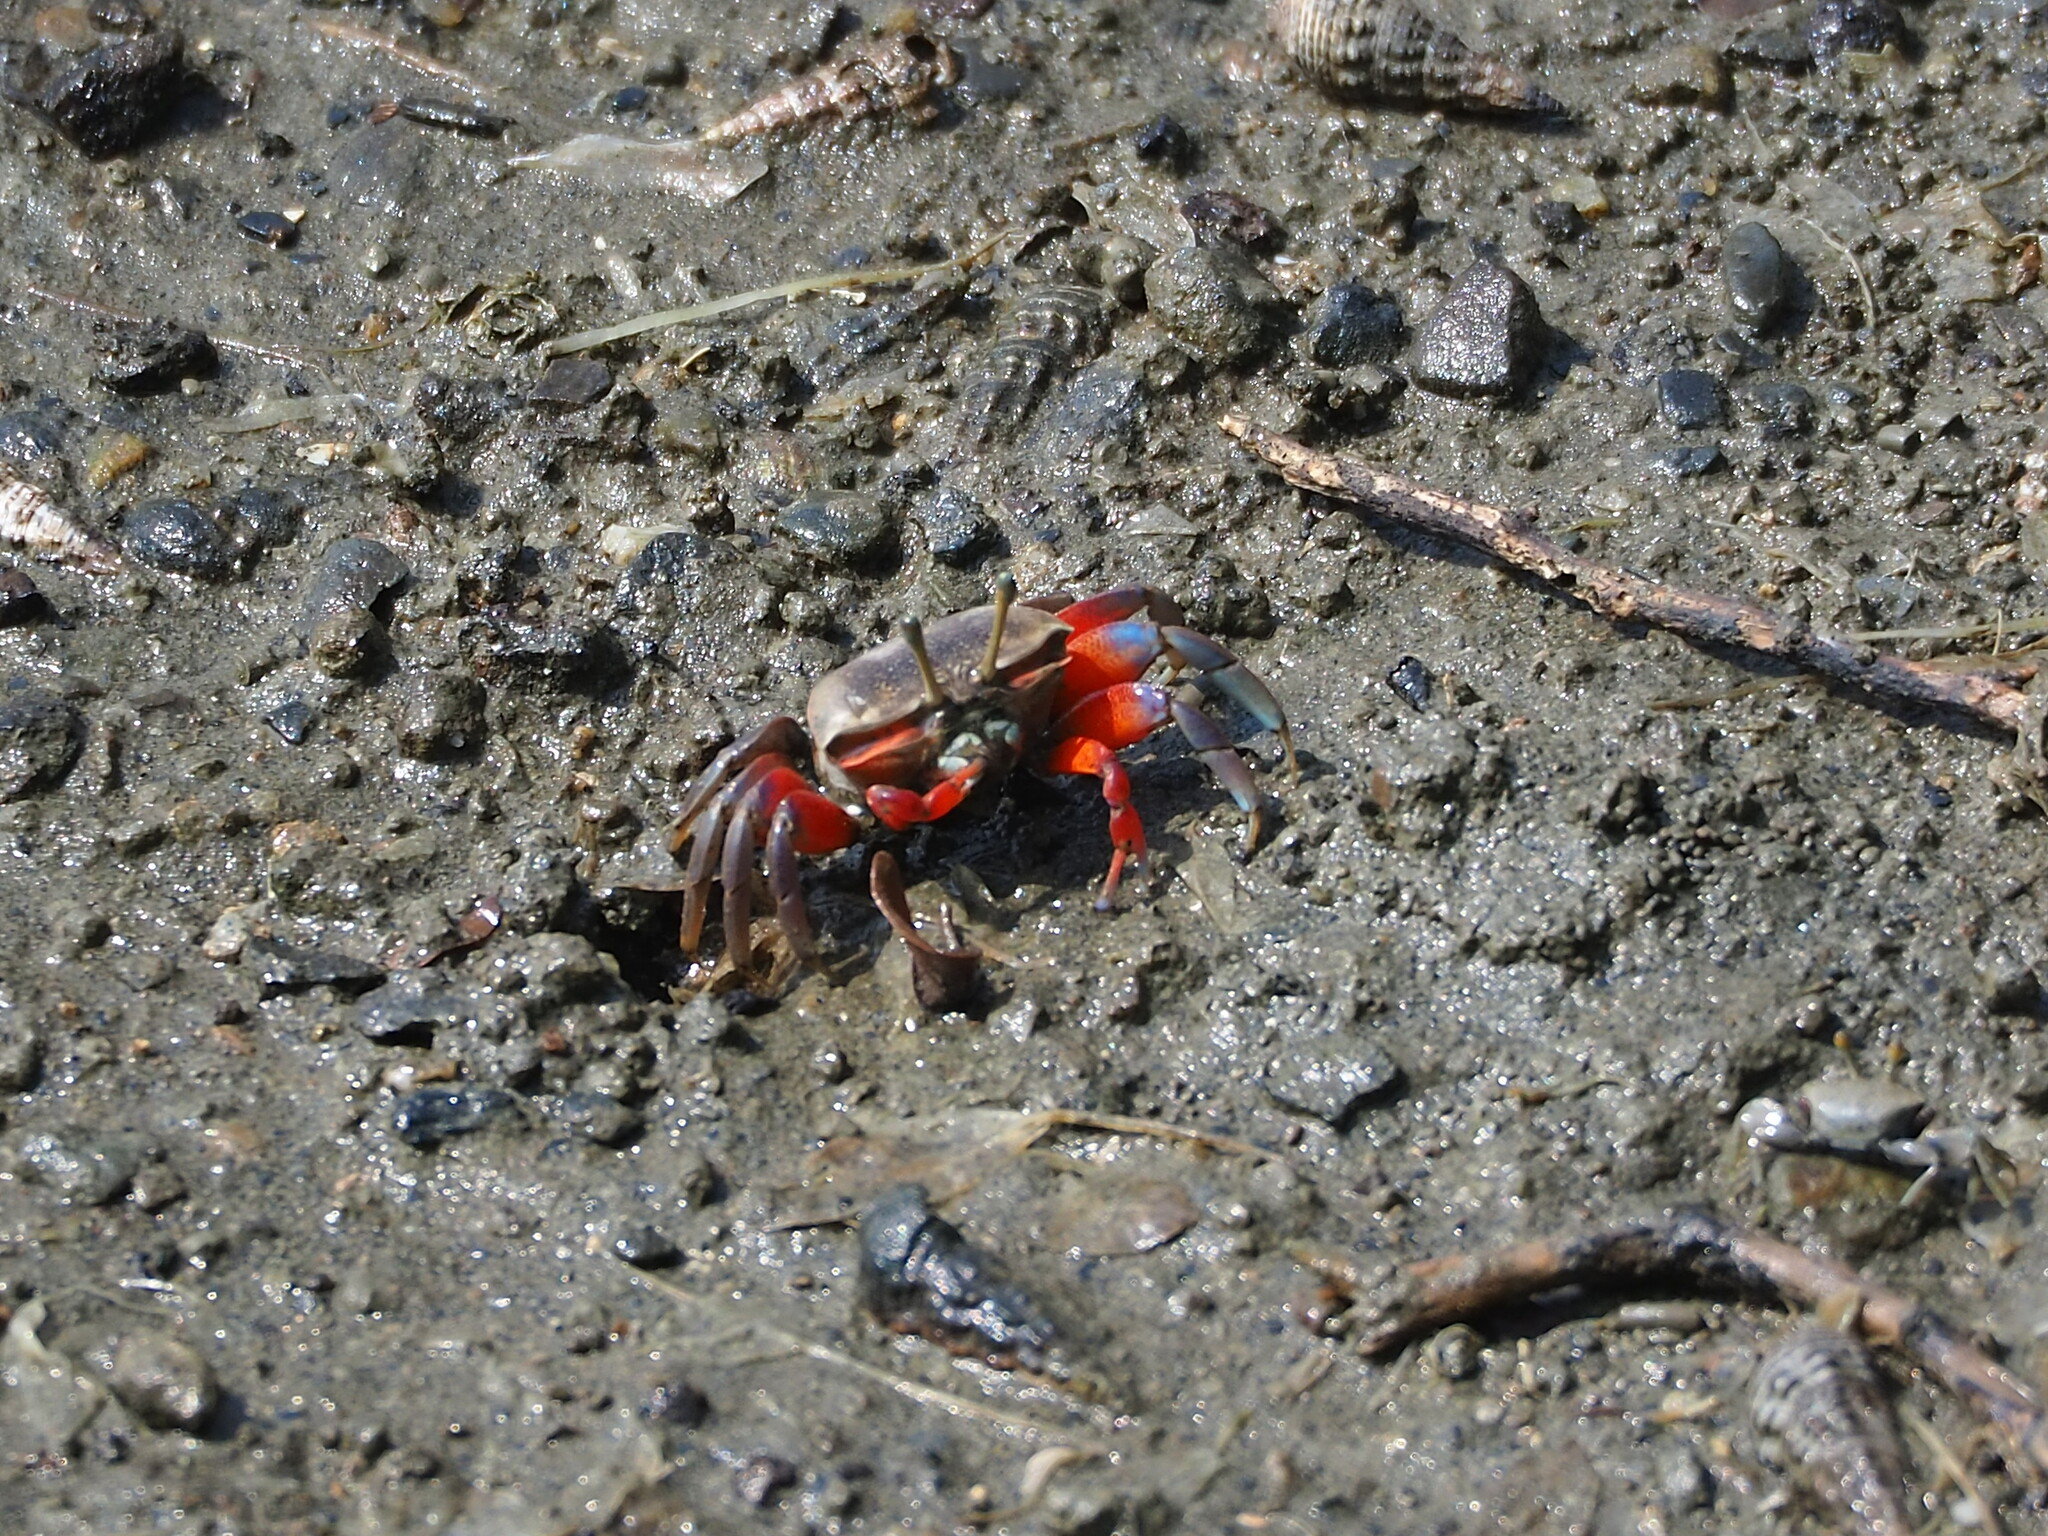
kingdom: Animalia
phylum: Arthropoda
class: Malacostraca
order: Decapoda
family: Ocypodidae
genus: Tubuca
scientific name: Tubuca arcuata
